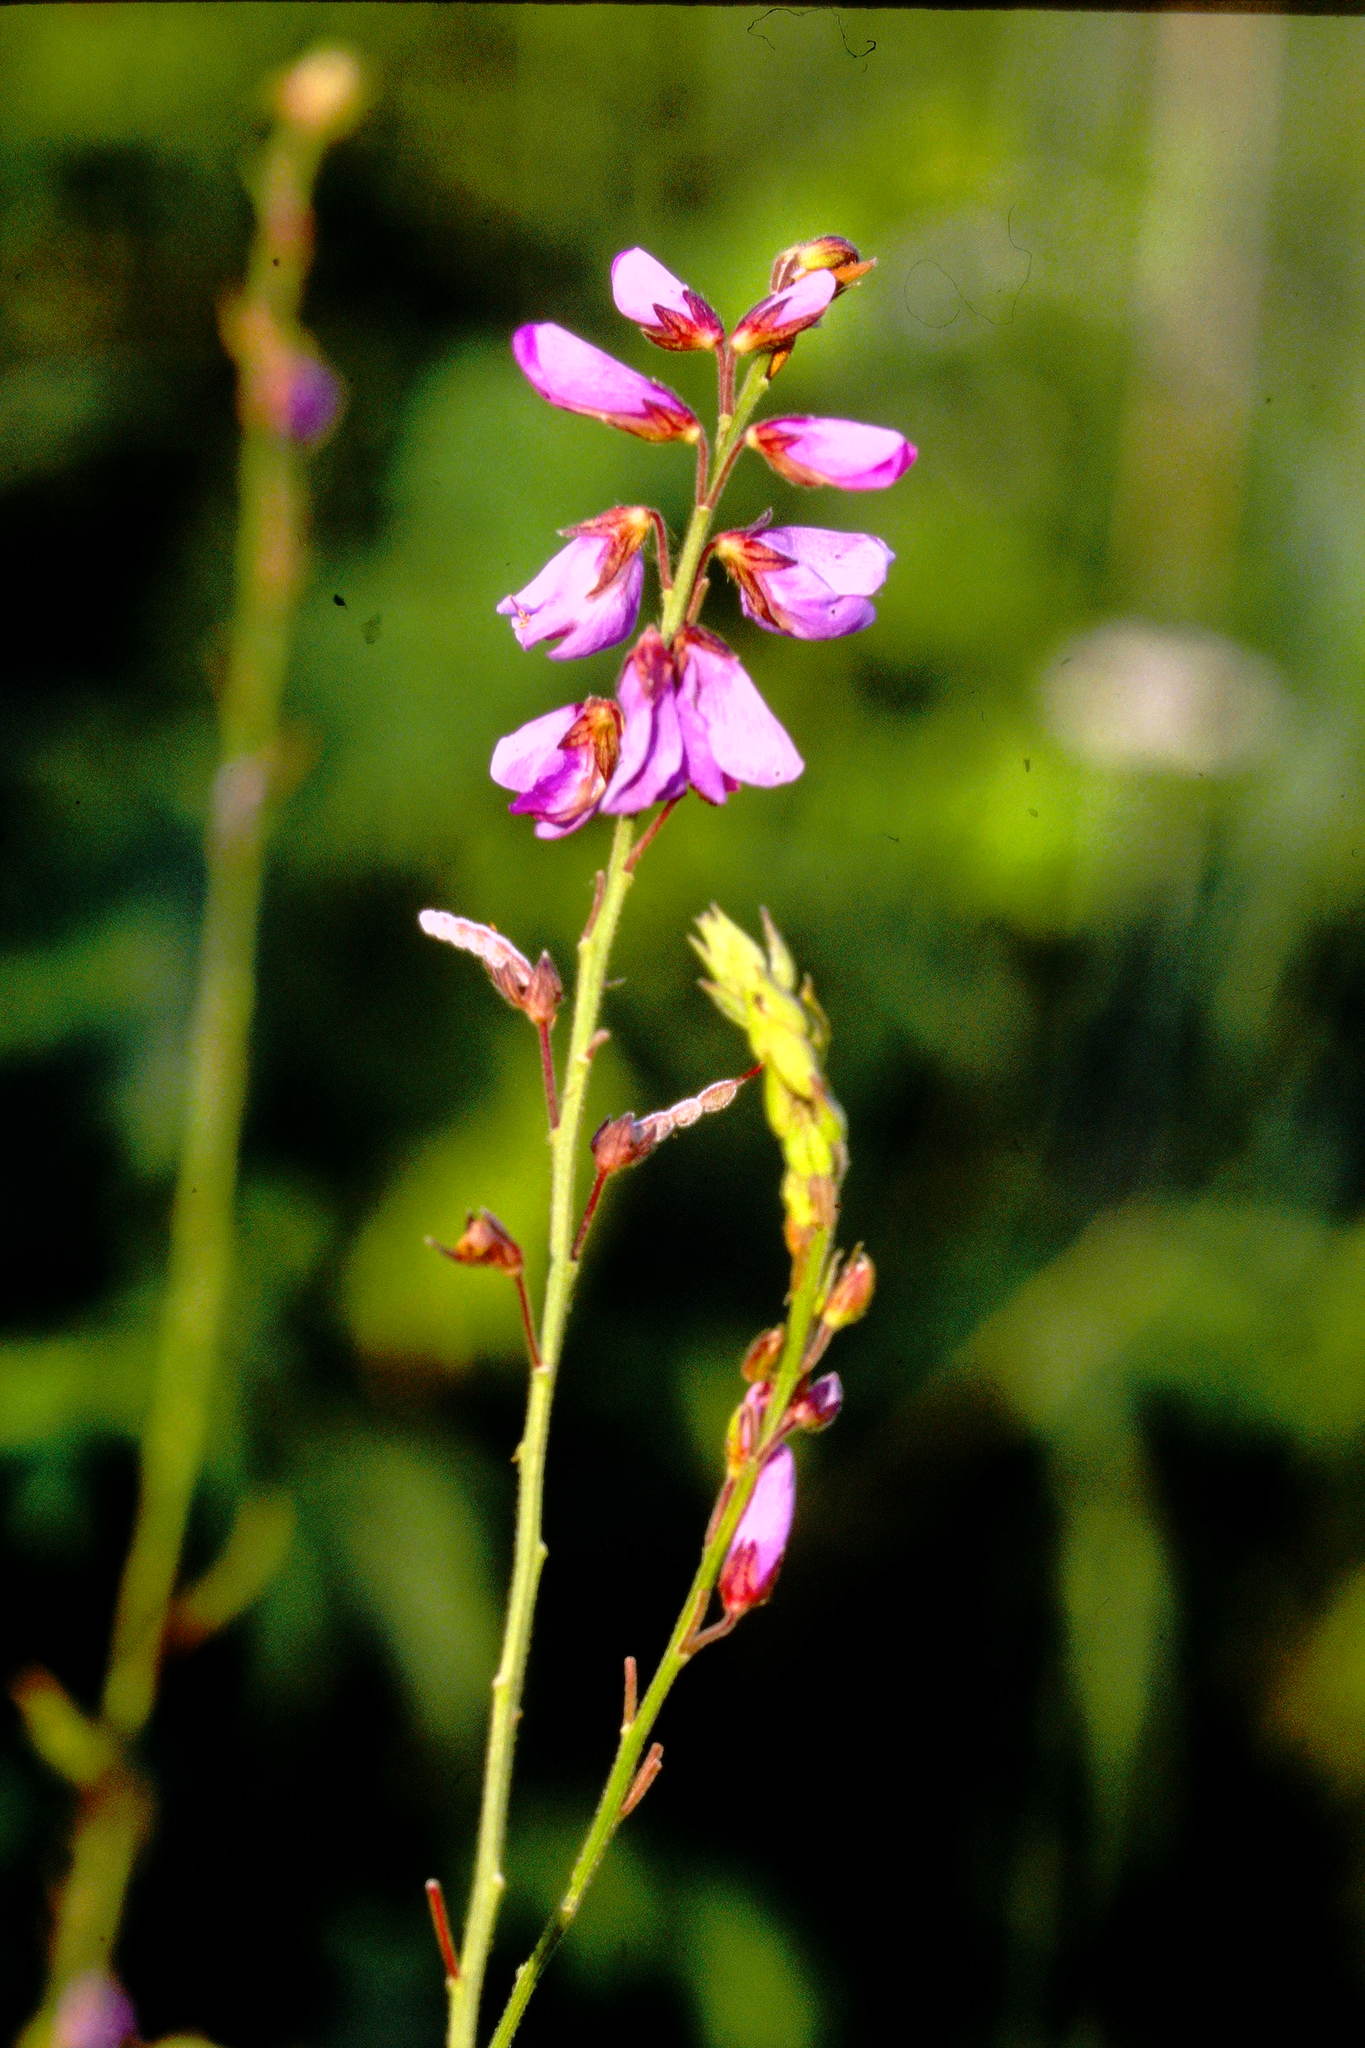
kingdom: Plantae
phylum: Tracheophyta
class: Magnoliopsida
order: Fabales
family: Fabaceae
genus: Desmodium
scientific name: Desmodium canadense
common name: Canada tick-trefoil
